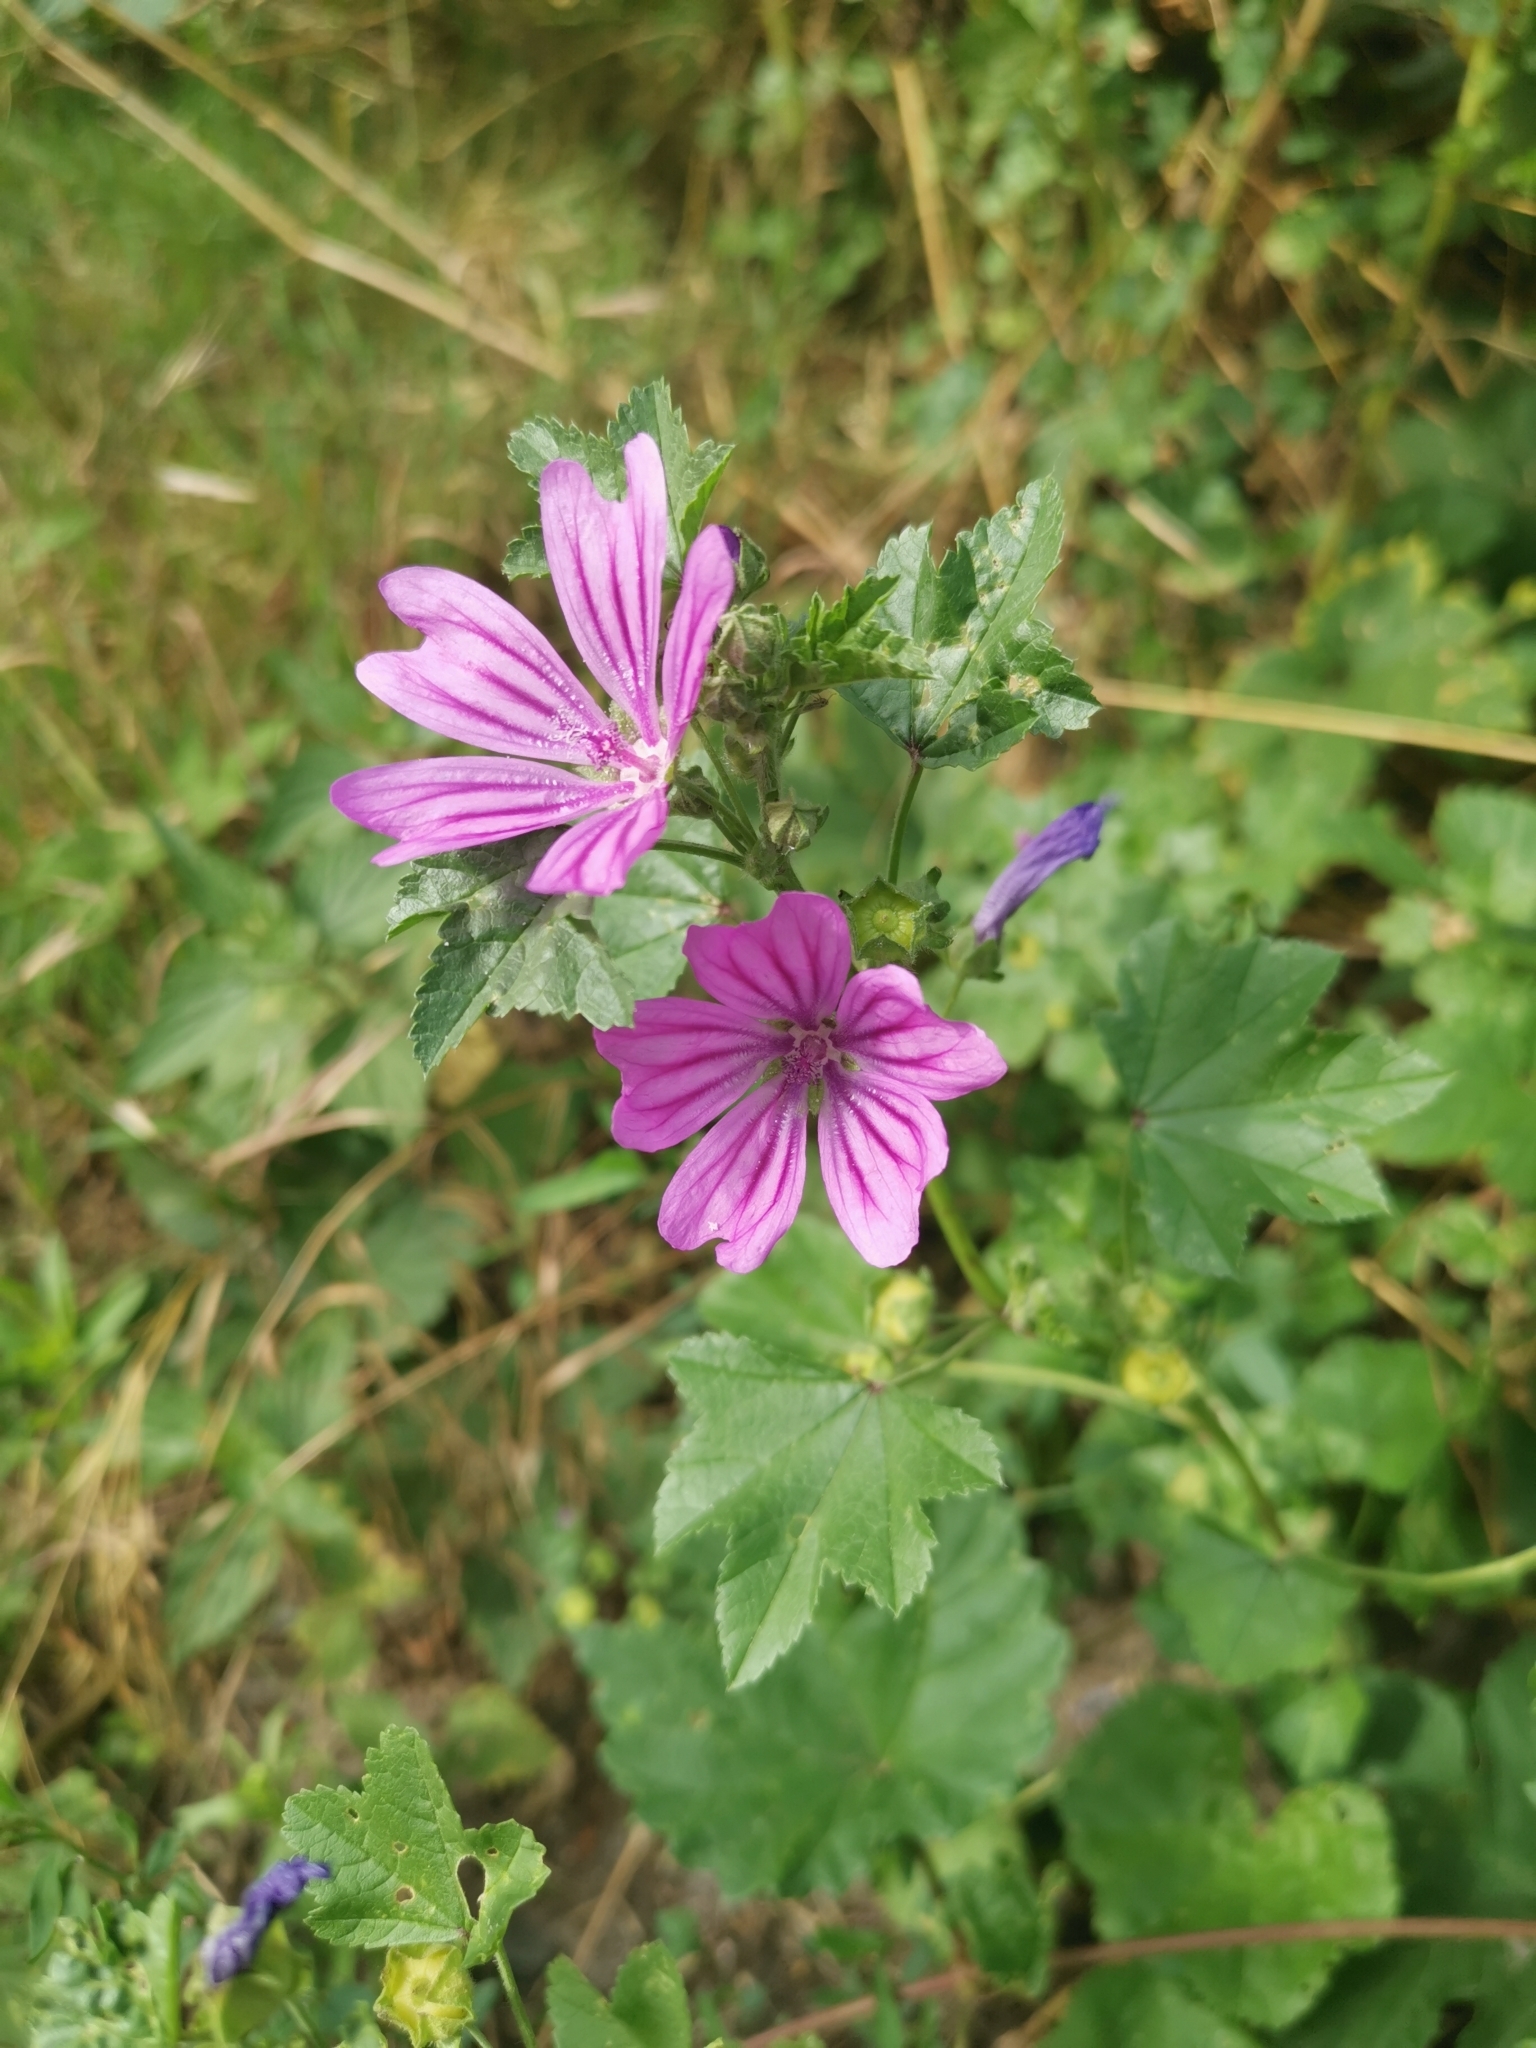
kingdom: Plantae
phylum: Tracheophyta
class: Magnoliopsida
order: Malvales
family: Malvaceae
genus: Malva
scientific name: Malva sylvestris
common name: Common mallow
